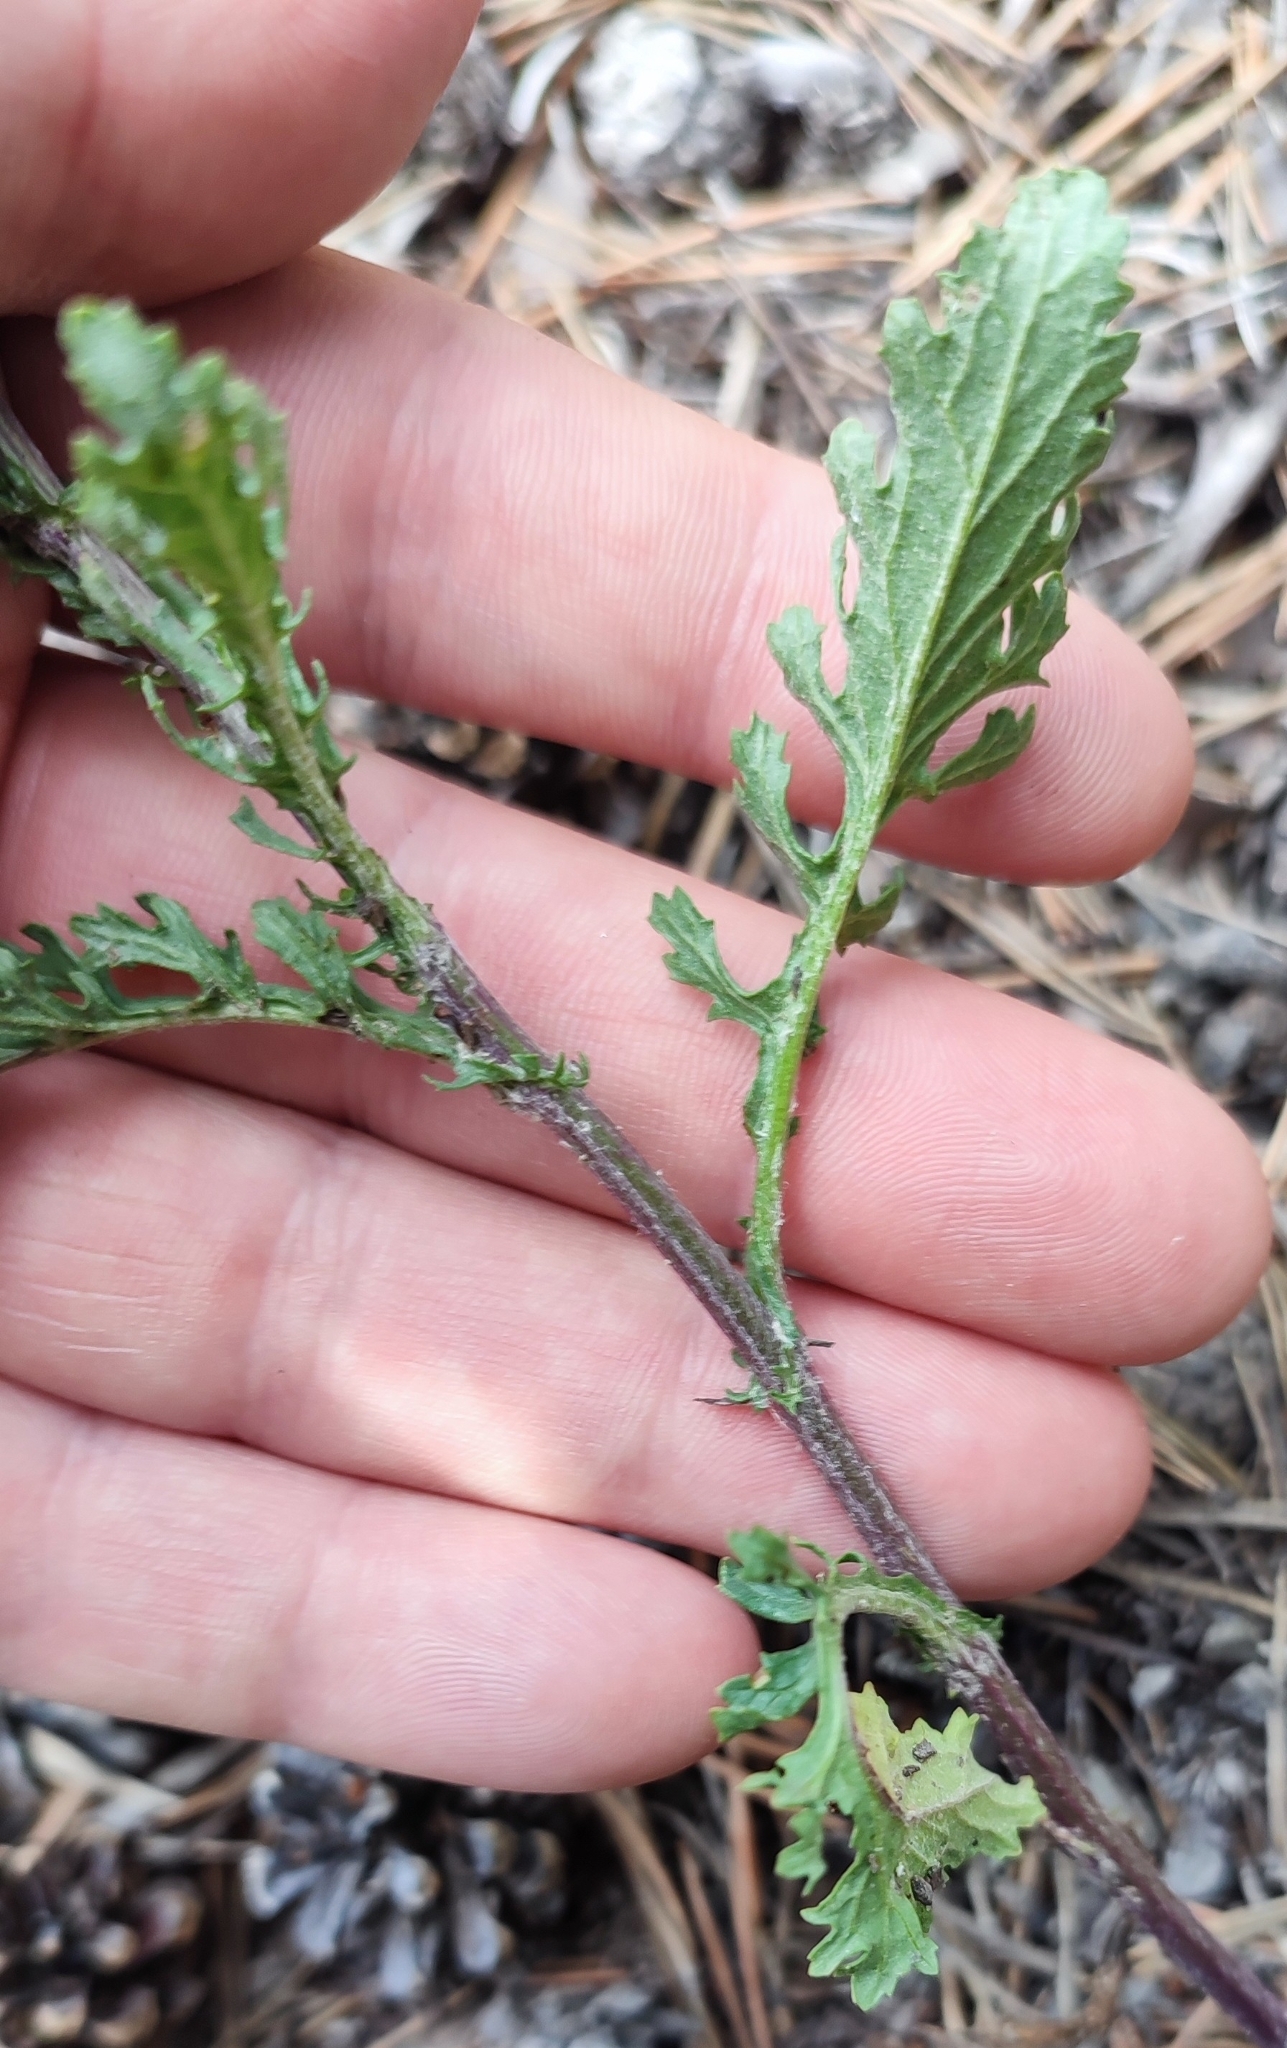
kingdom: Plantae
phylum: Tracheophyta
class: Magnoliopsida
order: Asterales
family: Asteraceae
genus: Jacobaea
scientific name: Jacobaea vulgaris
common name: Stinking willie
